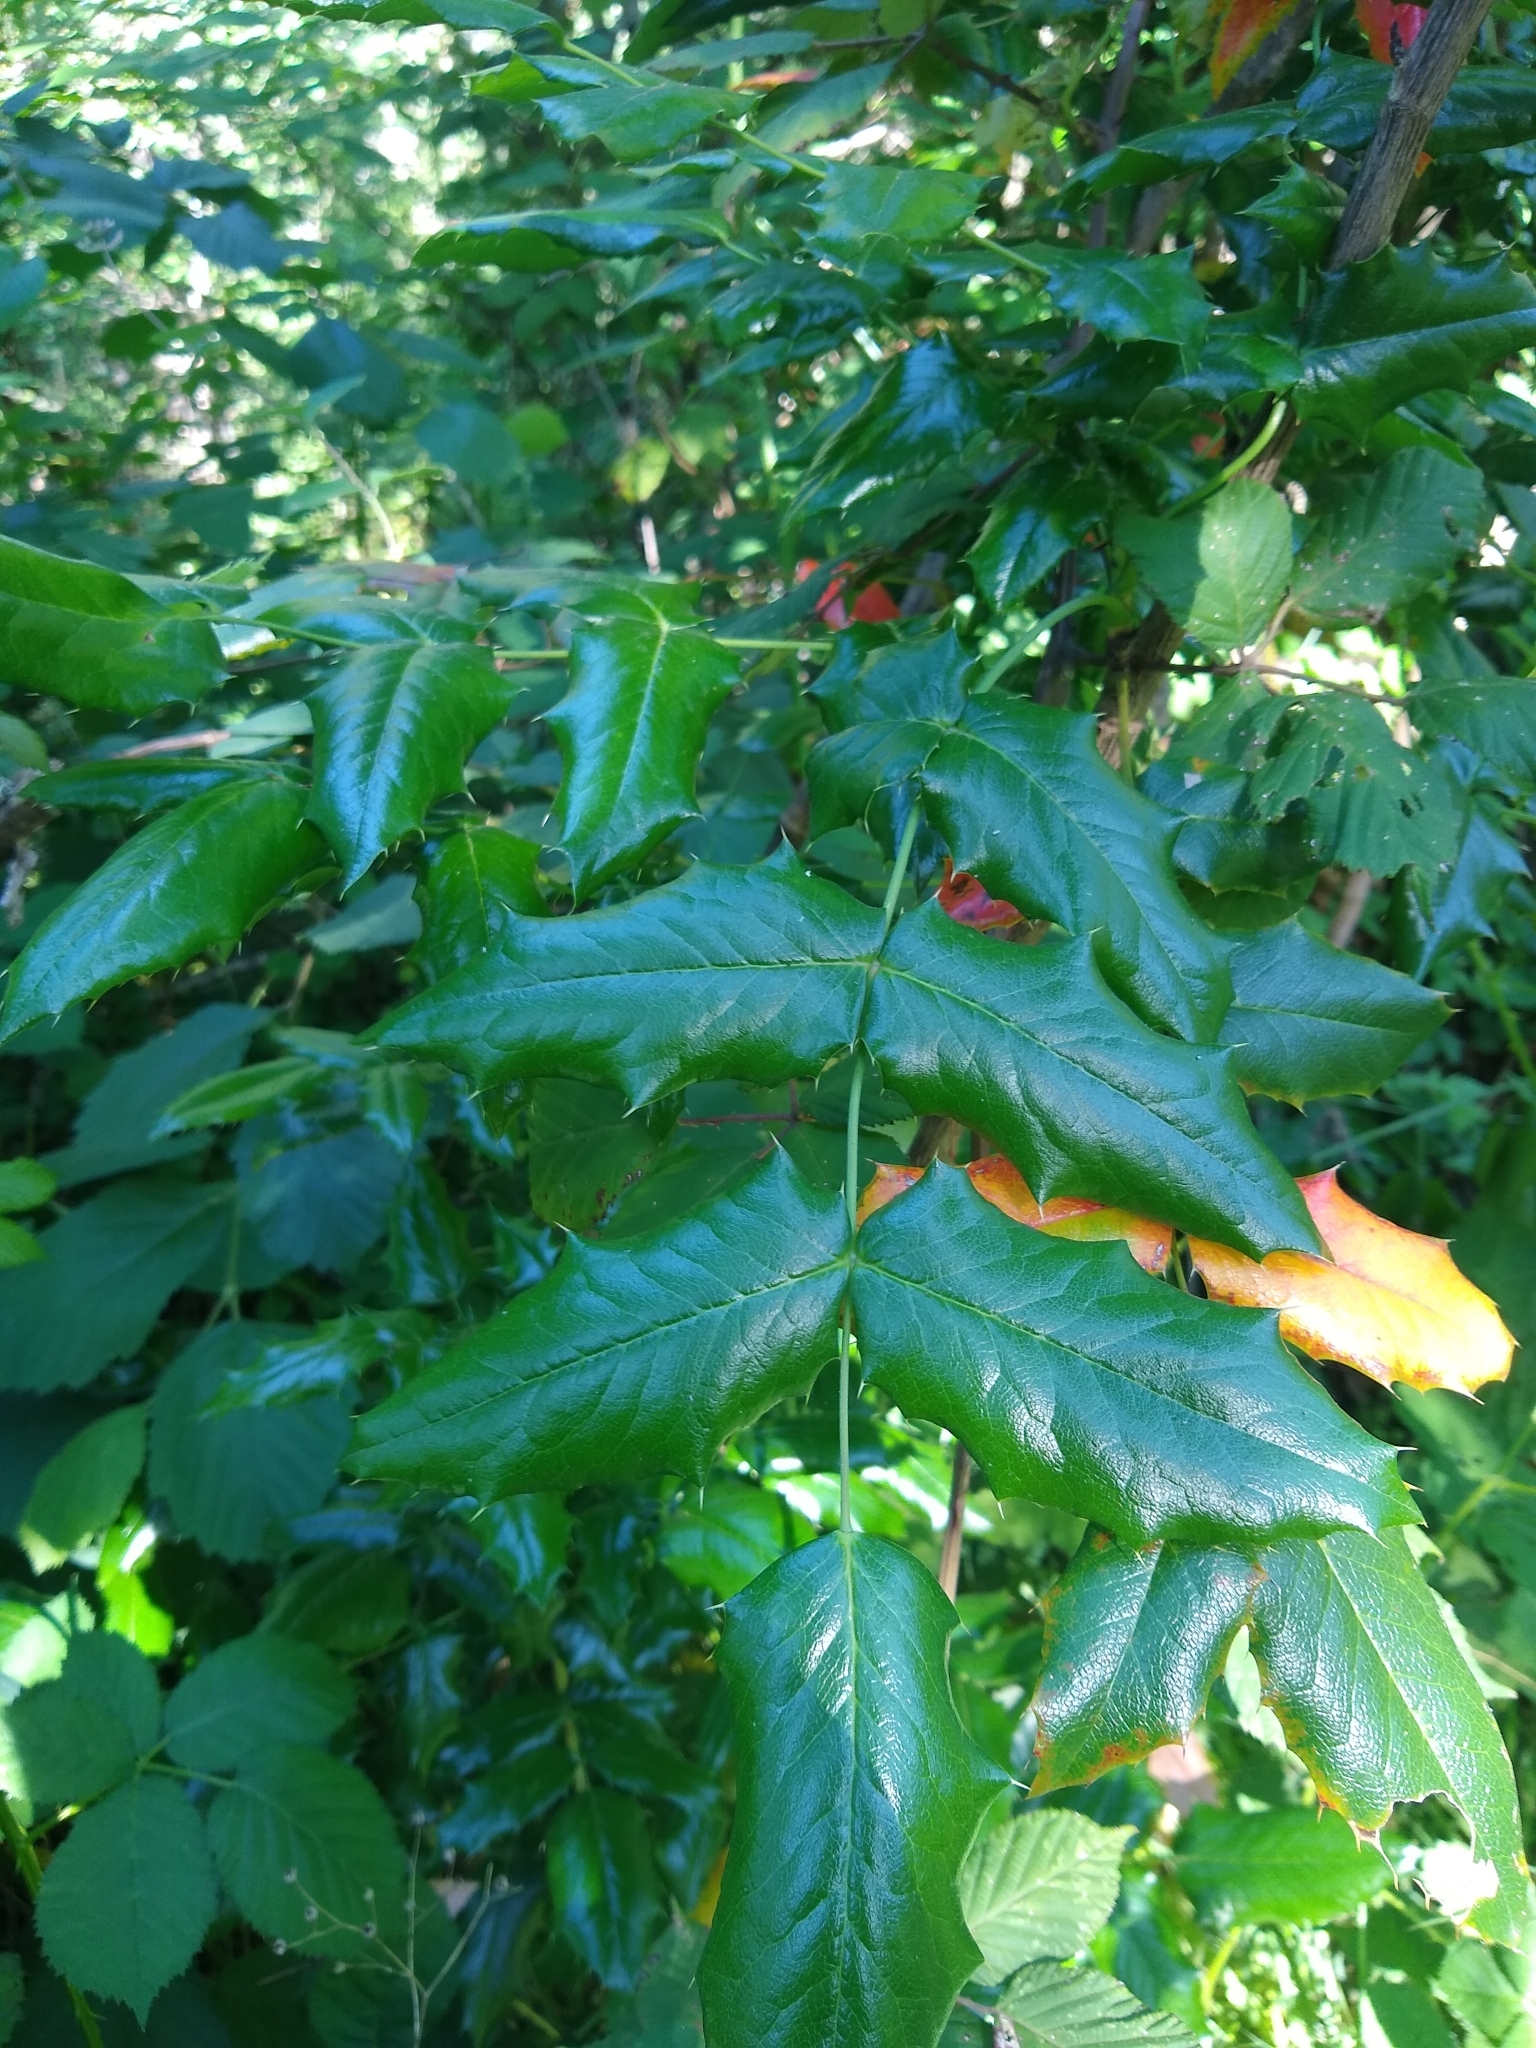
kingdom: Plantae
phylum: Tracheophyta
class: Magnoliopsida
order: Ranunculales
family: Berberidaceae
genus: Mahonia
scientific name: Mahonia aquifolium
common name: Oregon-grape
